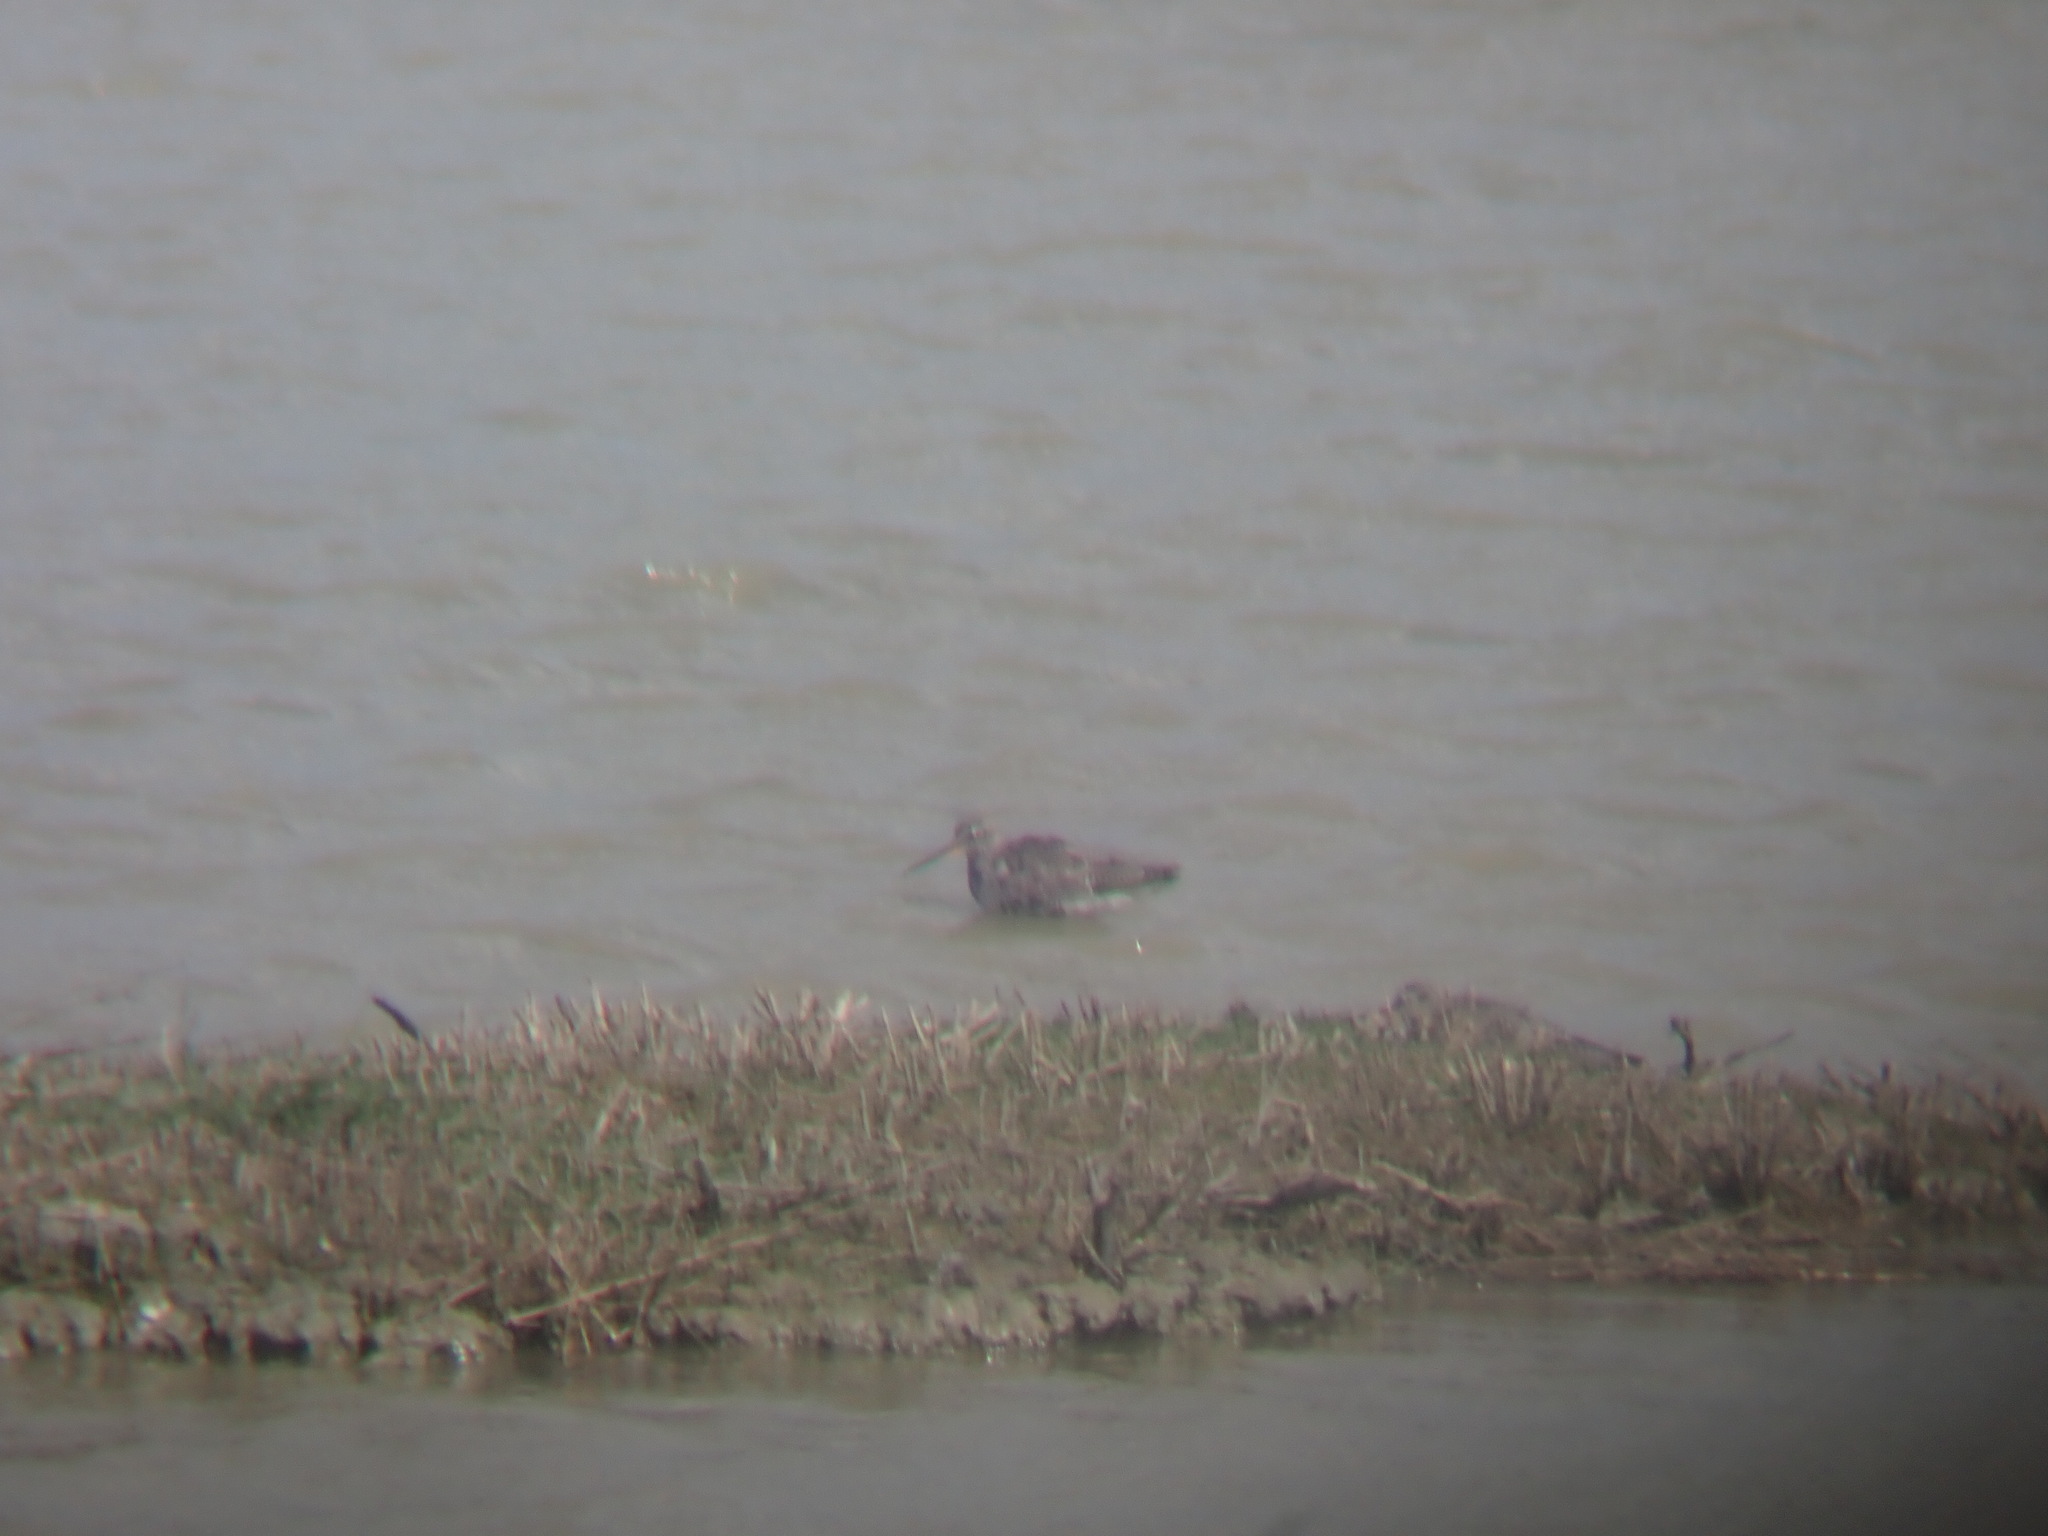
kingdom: Animalia
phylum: Chordata
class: Aves
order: Charadriiformes
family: Scolopacidae
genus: Tringa
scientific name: Tringa erythropus
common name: Spotted redshank
